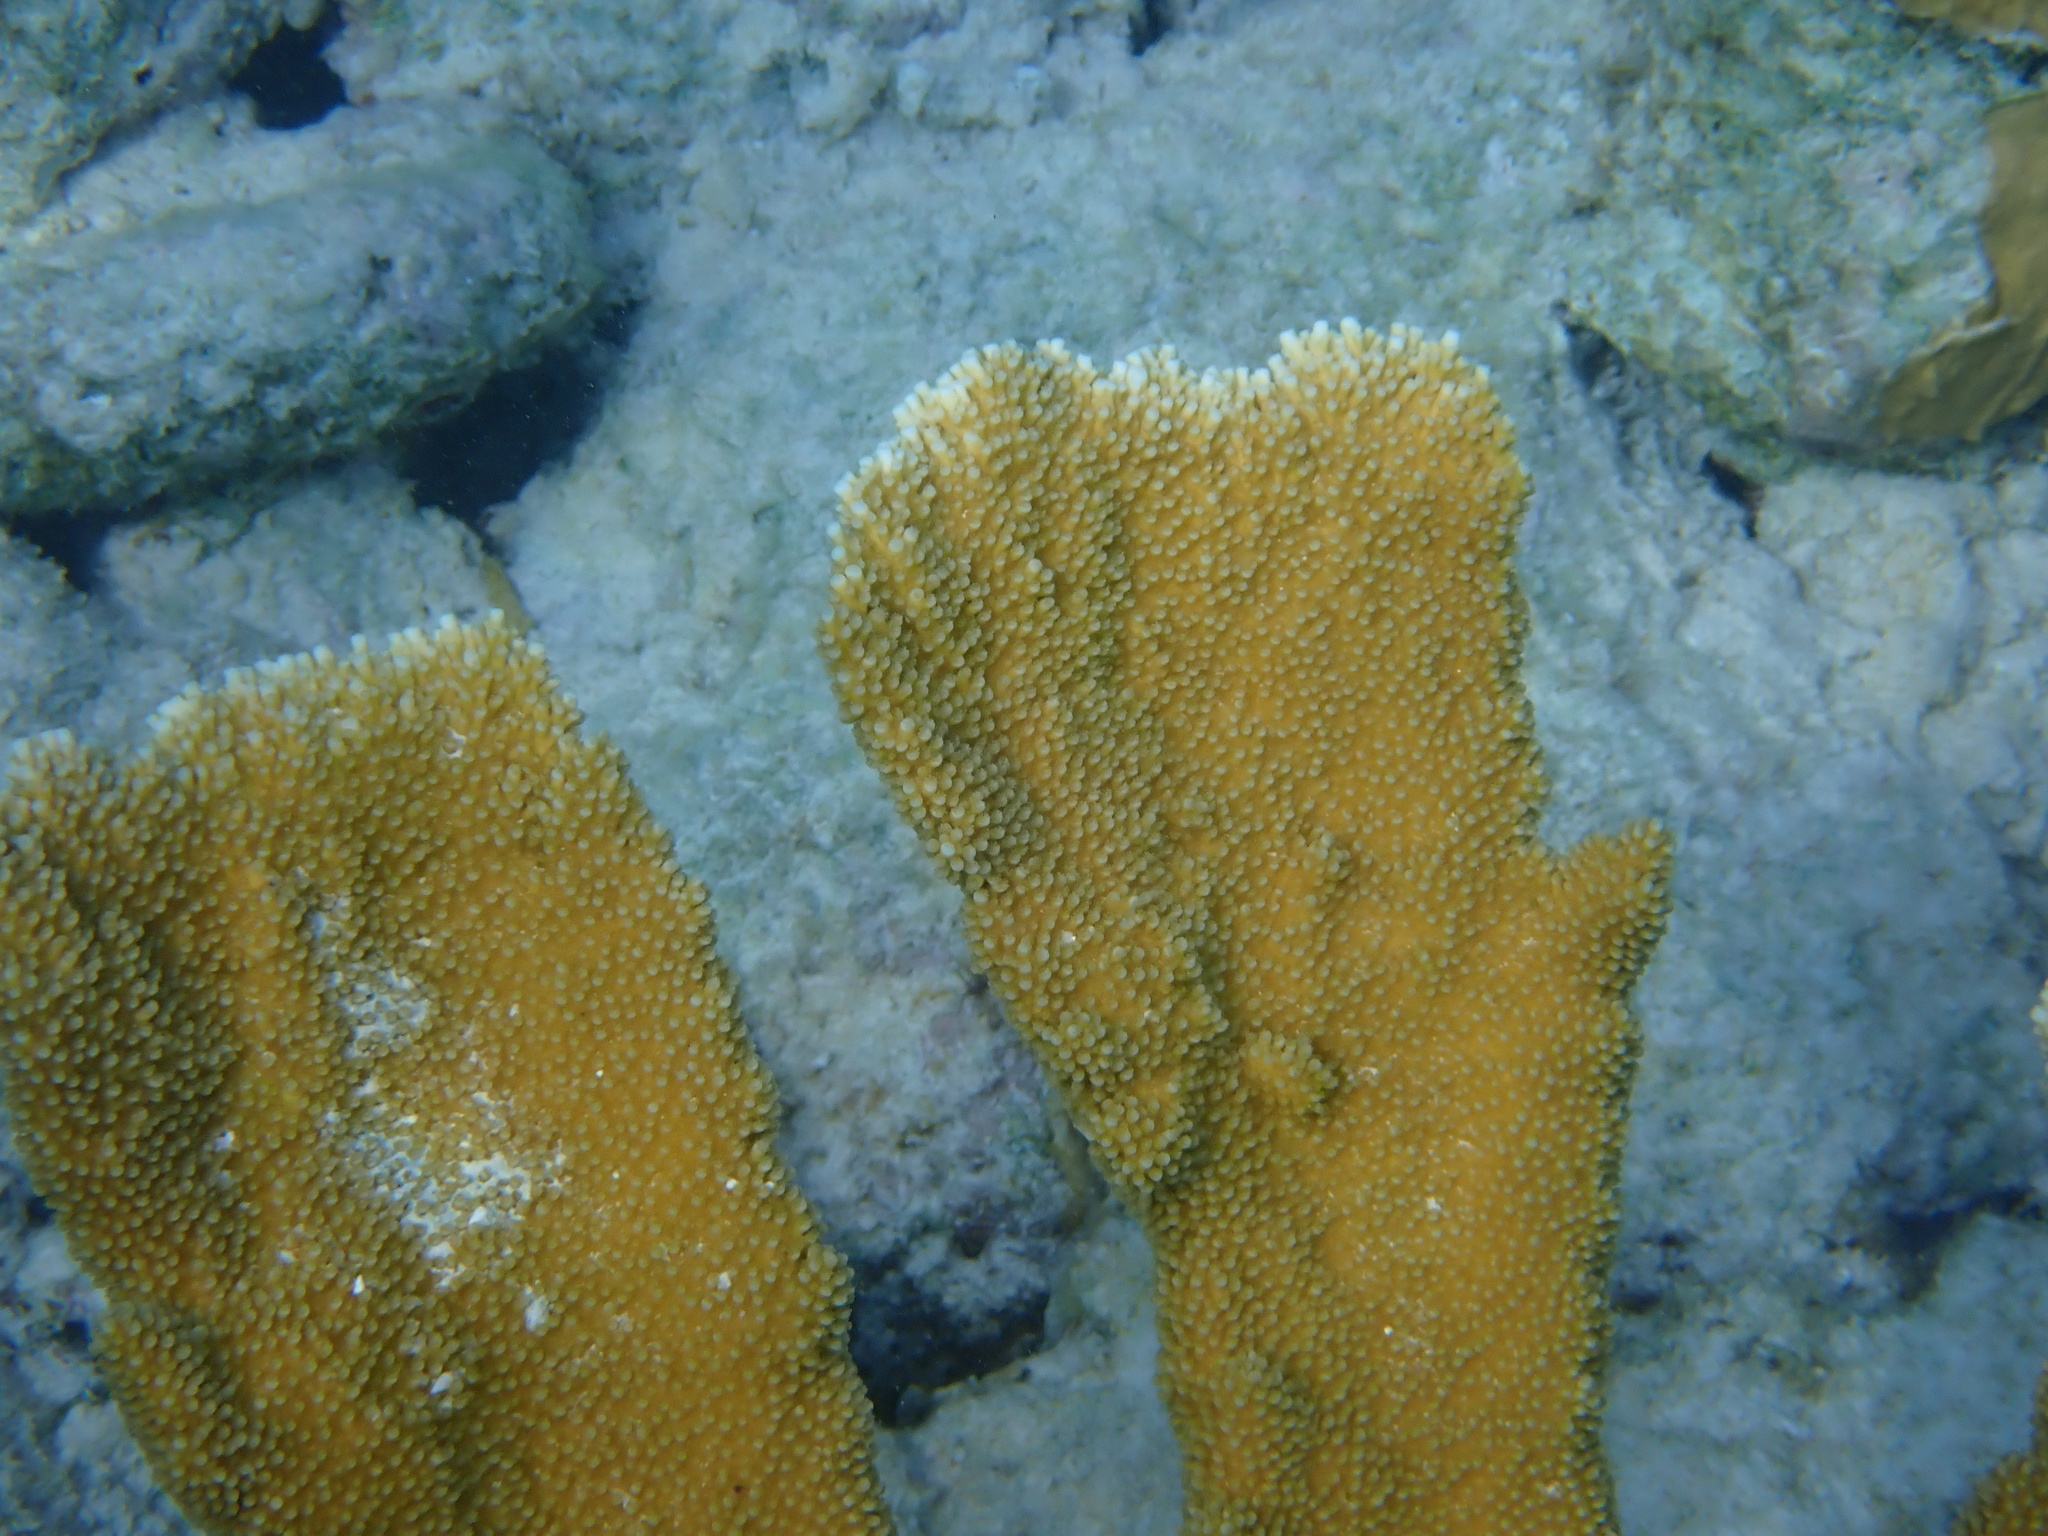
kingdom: Animalia
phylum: Cnidaria
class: Anthozoa
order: Scleractinia
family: Acroporidae
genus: Acropora
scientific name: Acropora palmata
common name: Elkhorn coral
